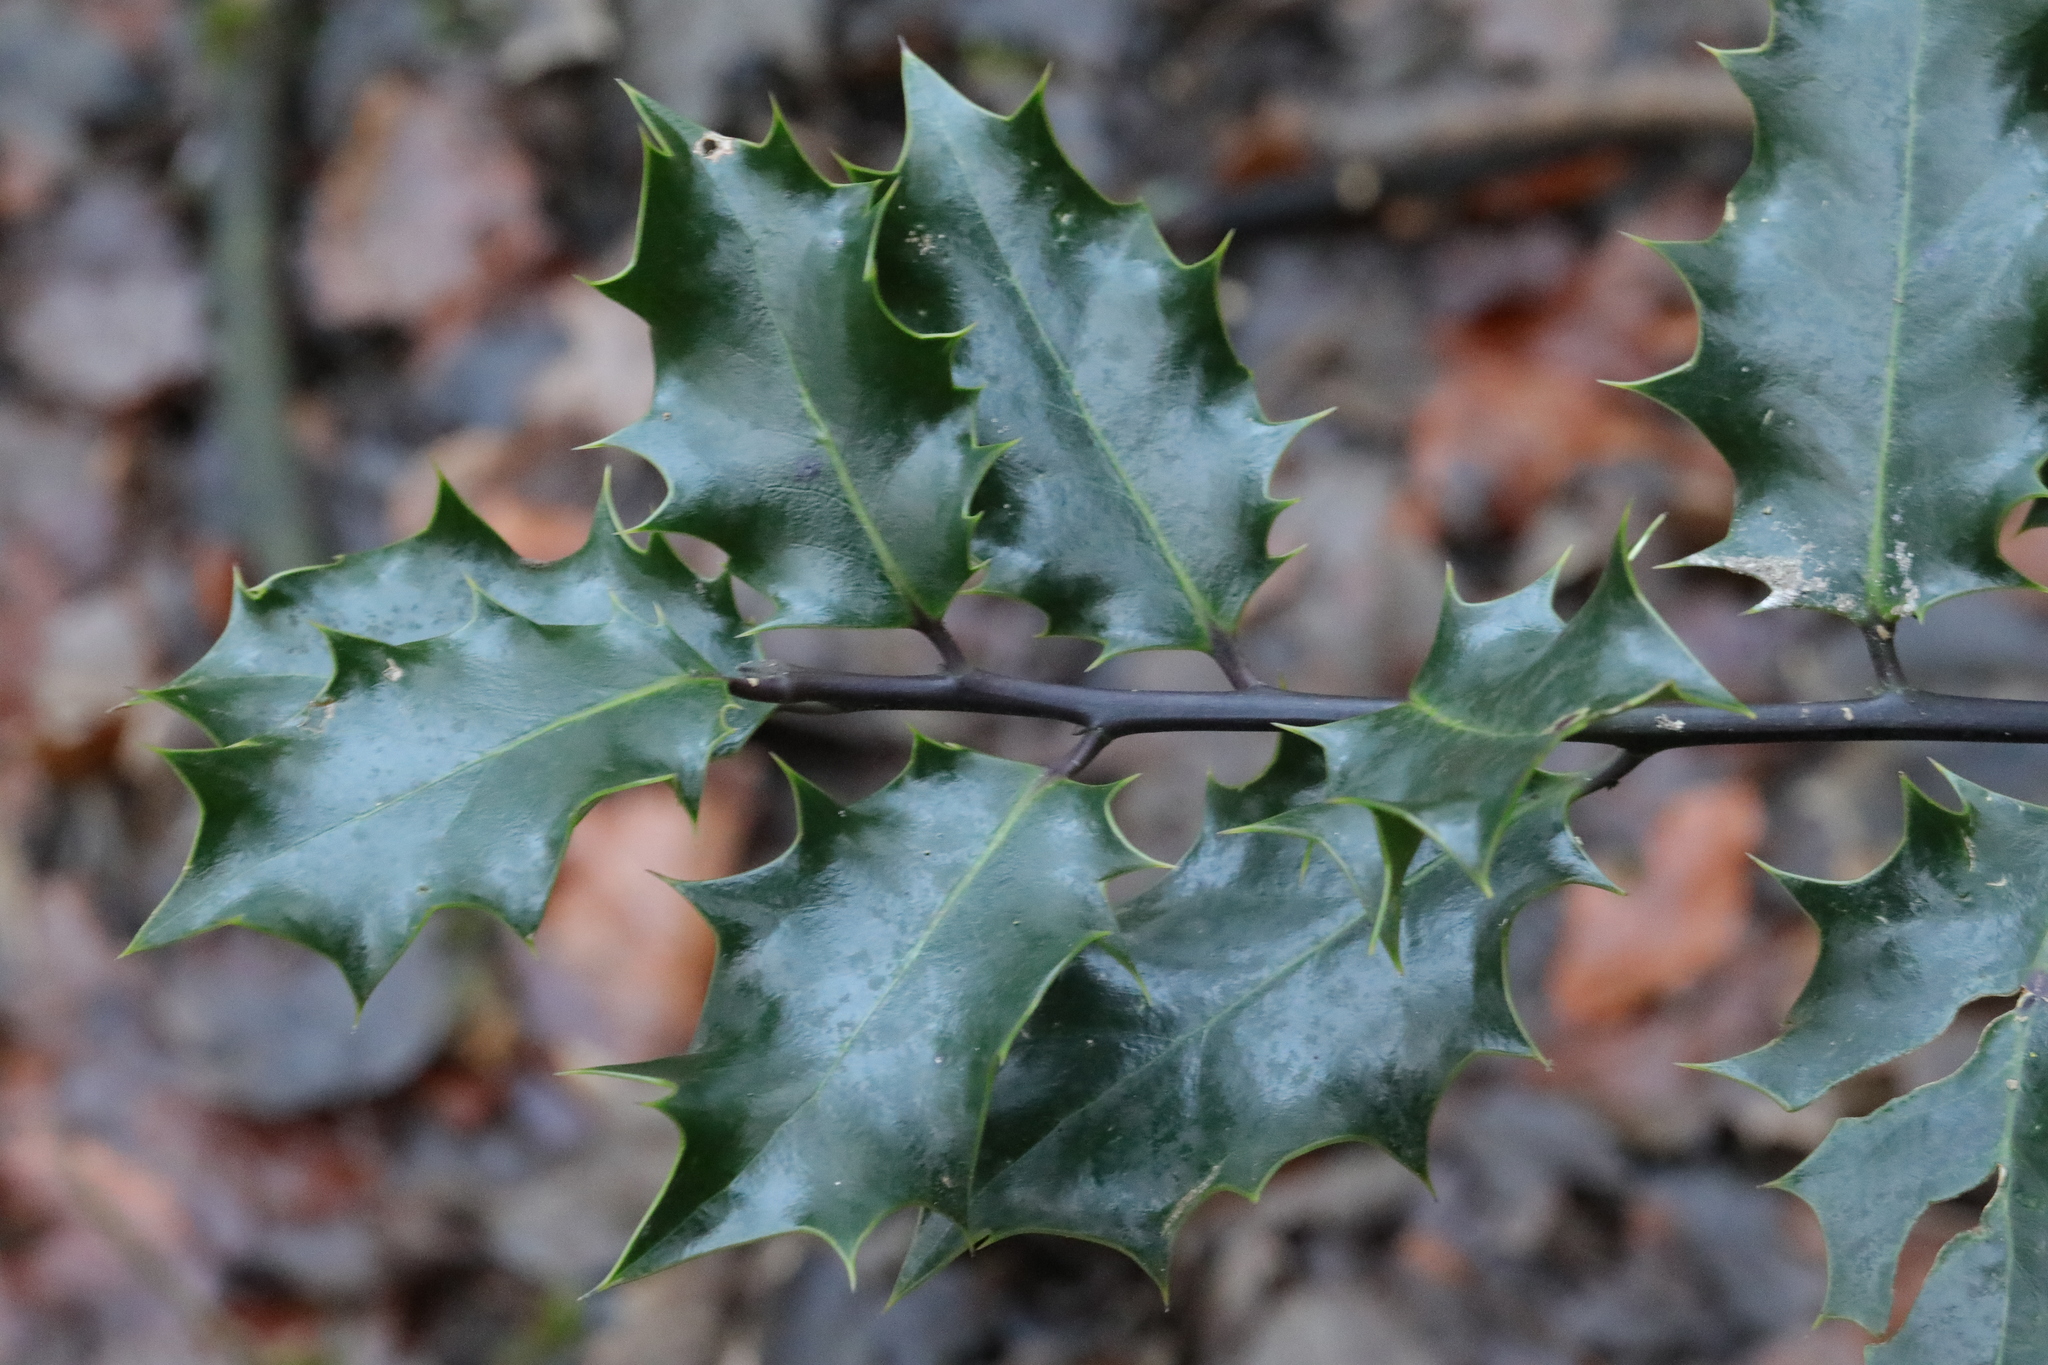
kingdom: Plantae
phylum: Tracheophyta
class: Magnoliopsida
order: Aquifoliales
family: Aquifoliaceae
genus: Ilex
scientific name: Ilex aquifolium
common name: English holly
